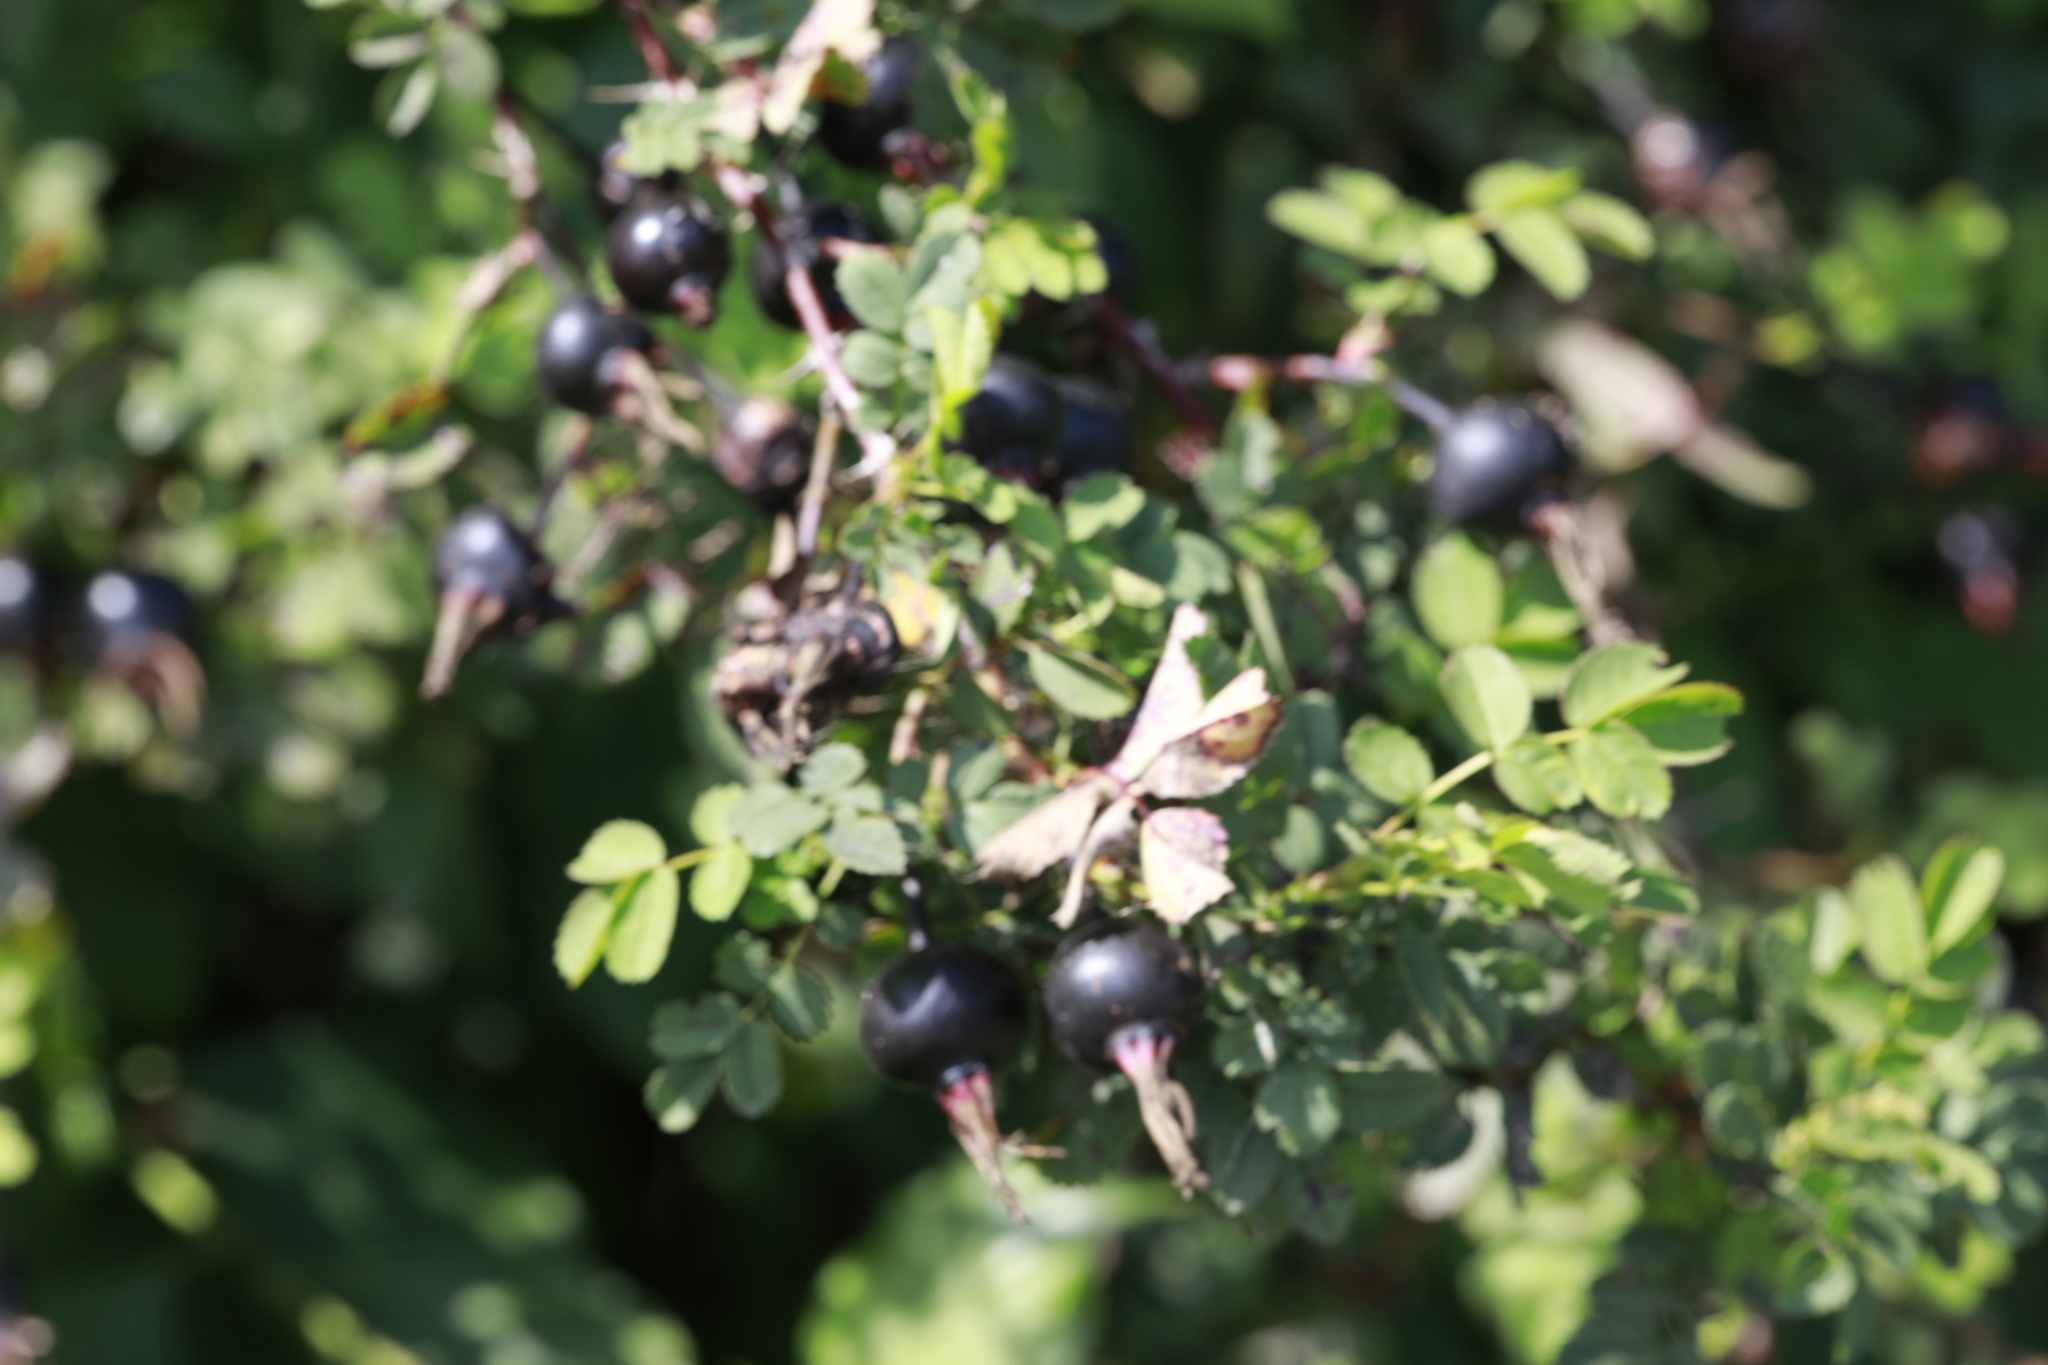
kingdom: Plantae
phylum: Tracheophyta
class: Magnoliopsida
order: Rosales
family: Rosaceae
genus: Rosa
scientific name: Rosa spinosissima
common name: Burnet rose
